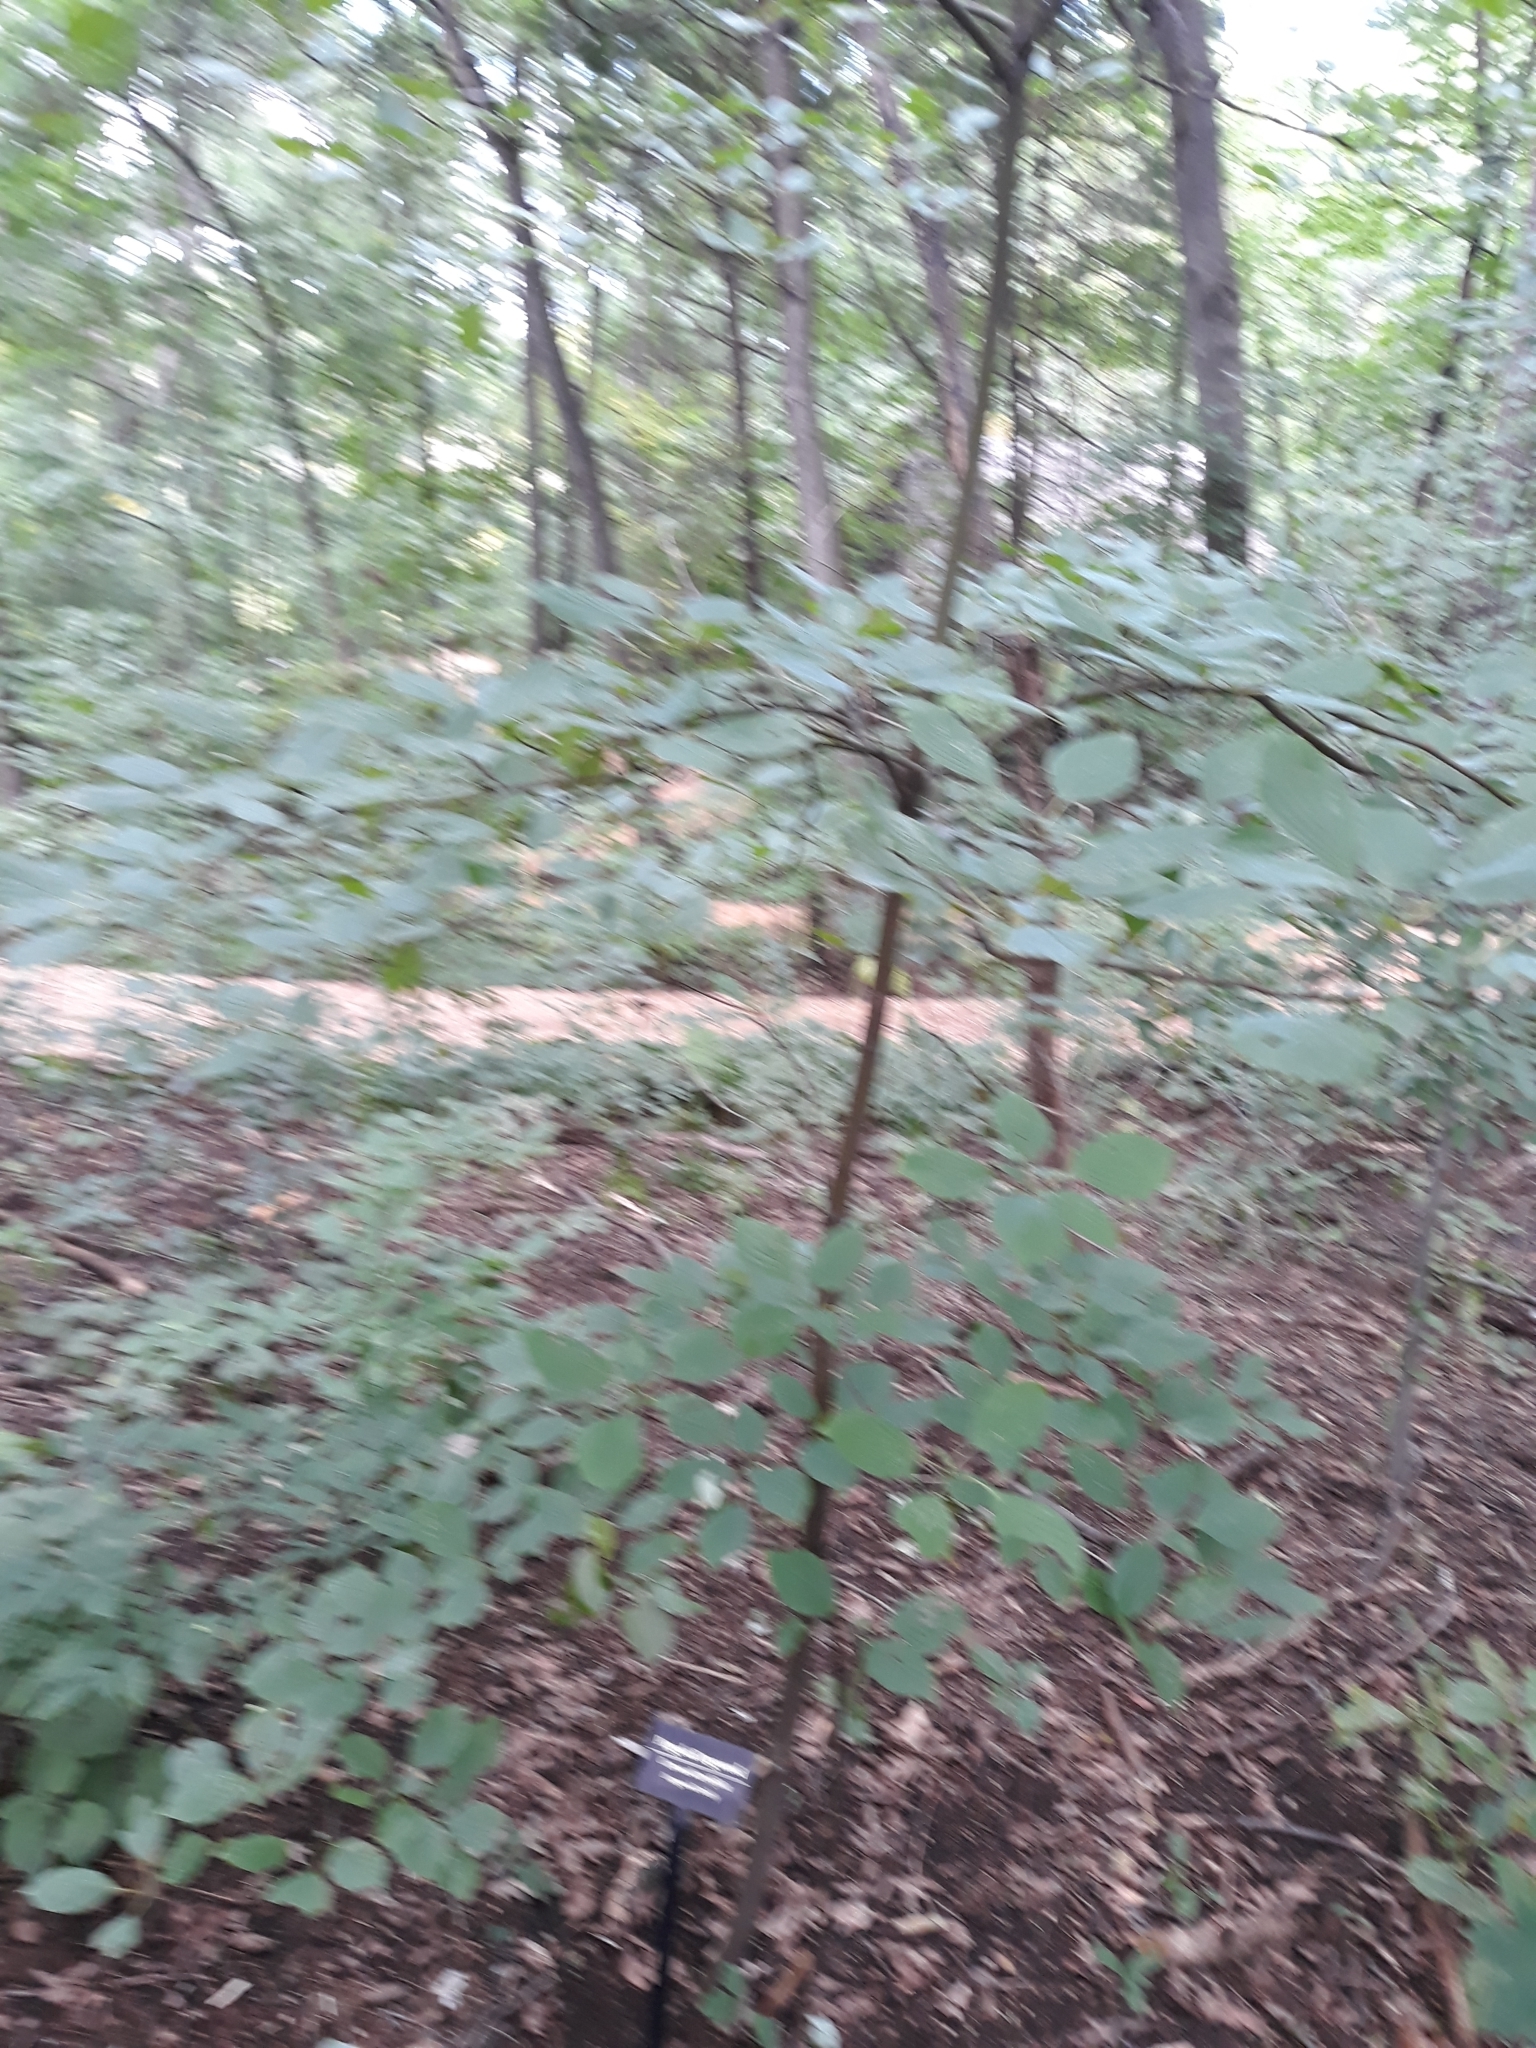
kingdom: Plantae
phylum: Tracheophyta
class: Magnoliopsida
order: Cornales
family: Cornaceae
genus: Cornus
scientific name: Cornus alternifolia
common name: Pagoda dogwood
